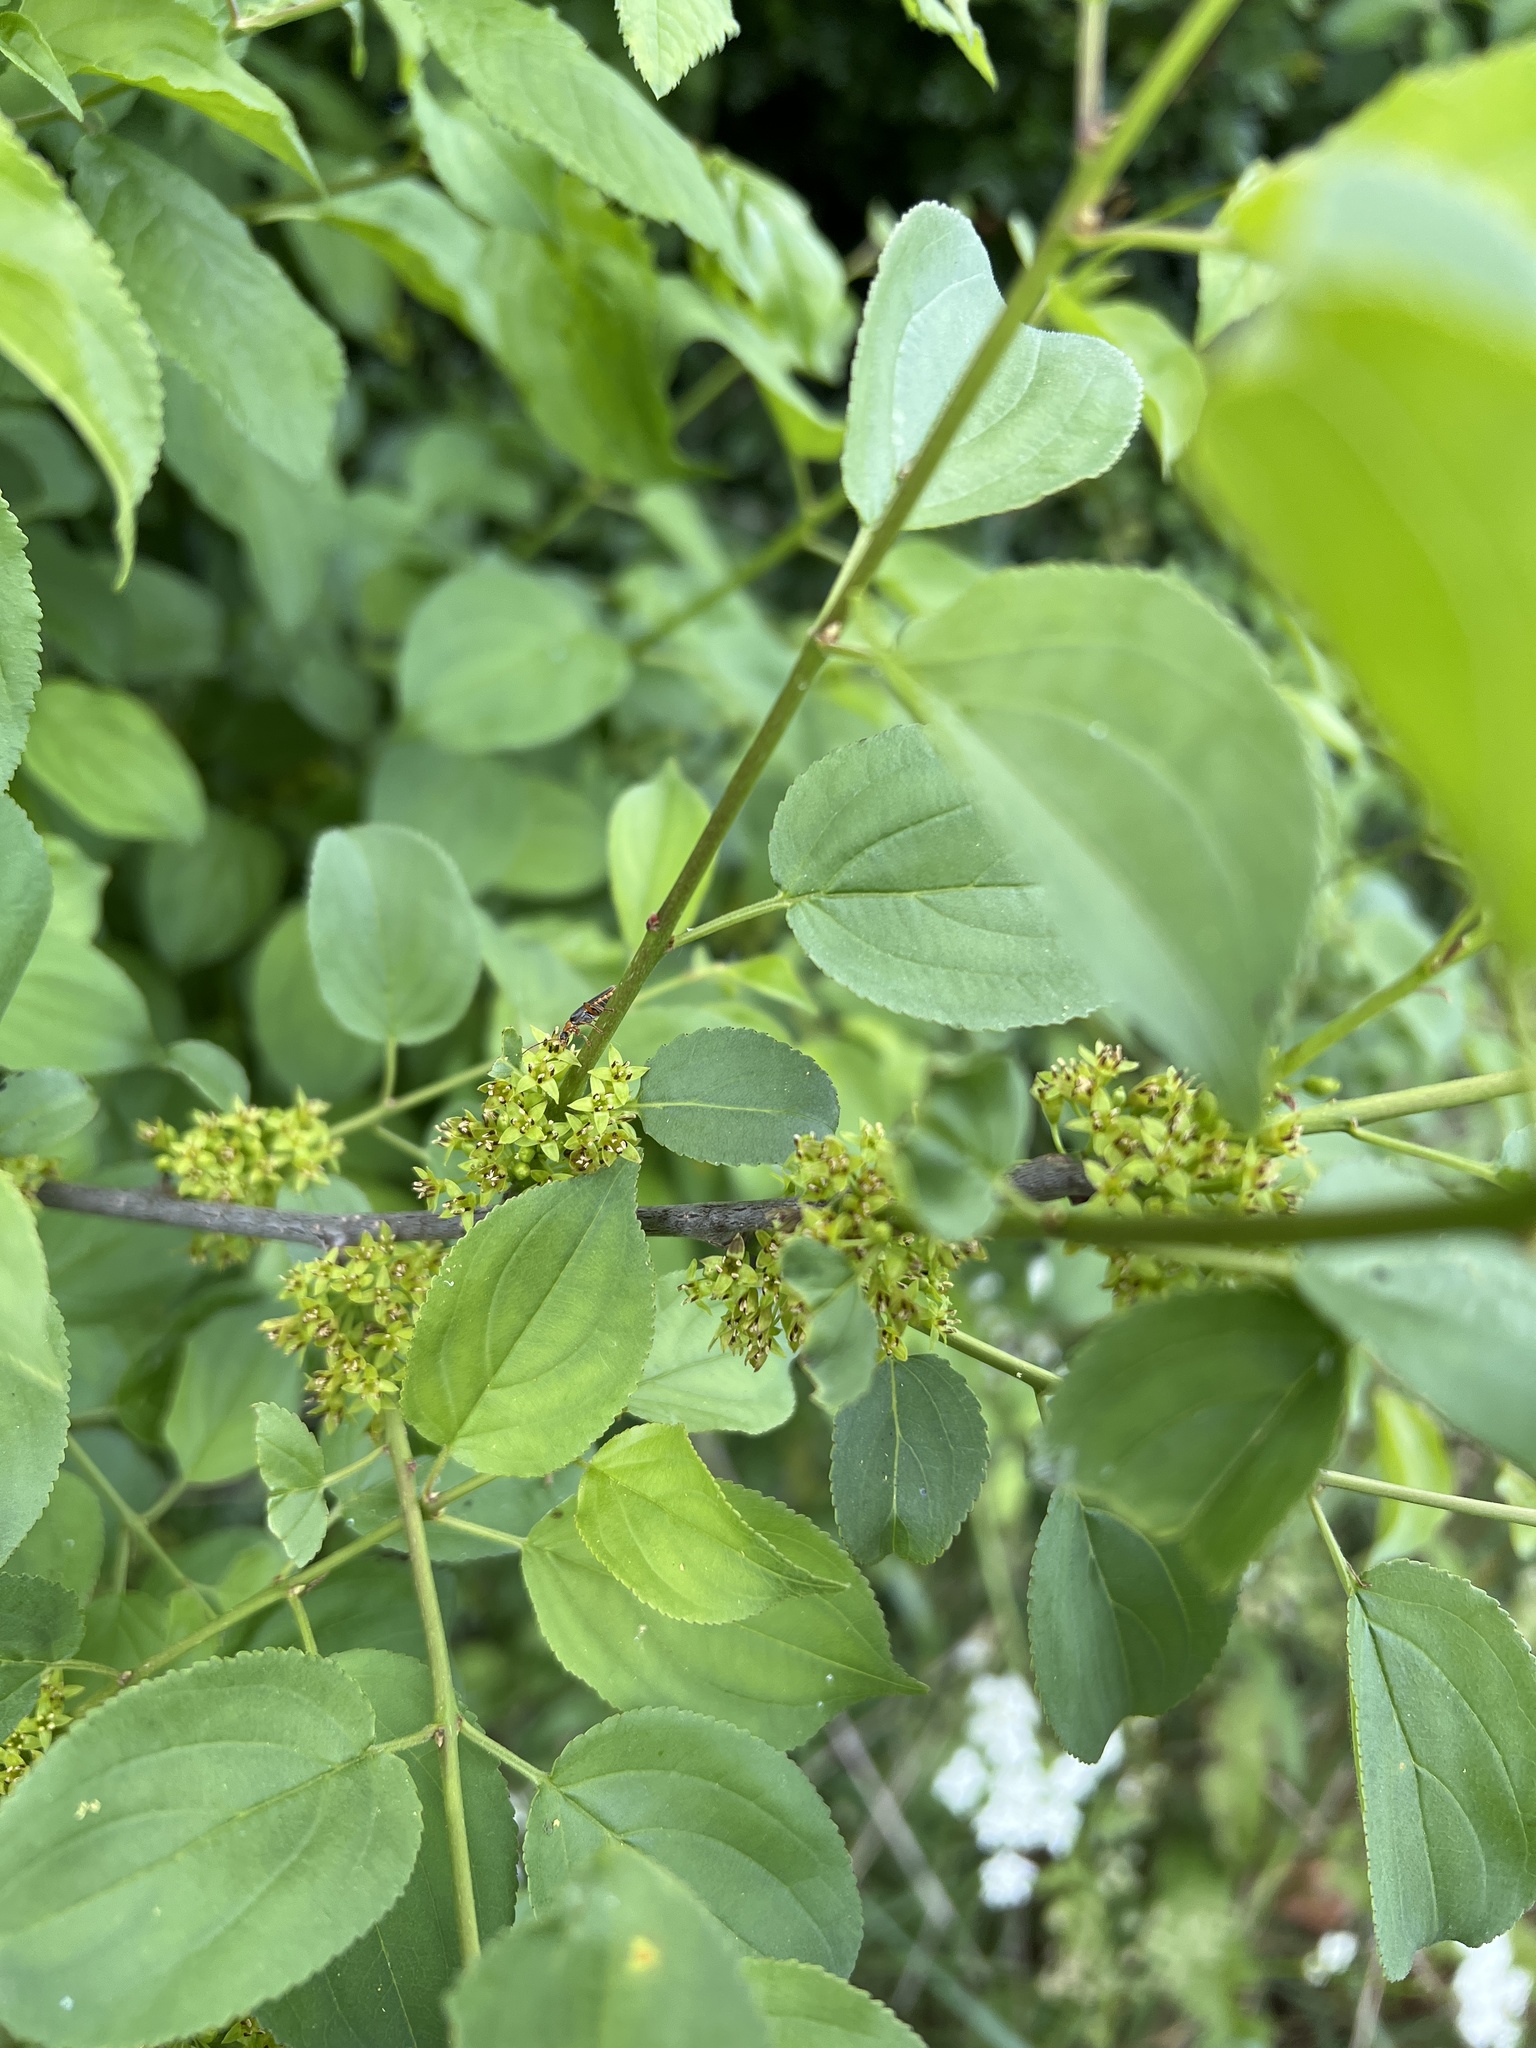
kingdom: Plantae
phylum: Tracheophyta
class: Magnoliopsida
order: Rosales
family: Rhamnaceae
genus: Rhamnus
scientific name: Rhamnus cathartica
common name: Common buckthorn
